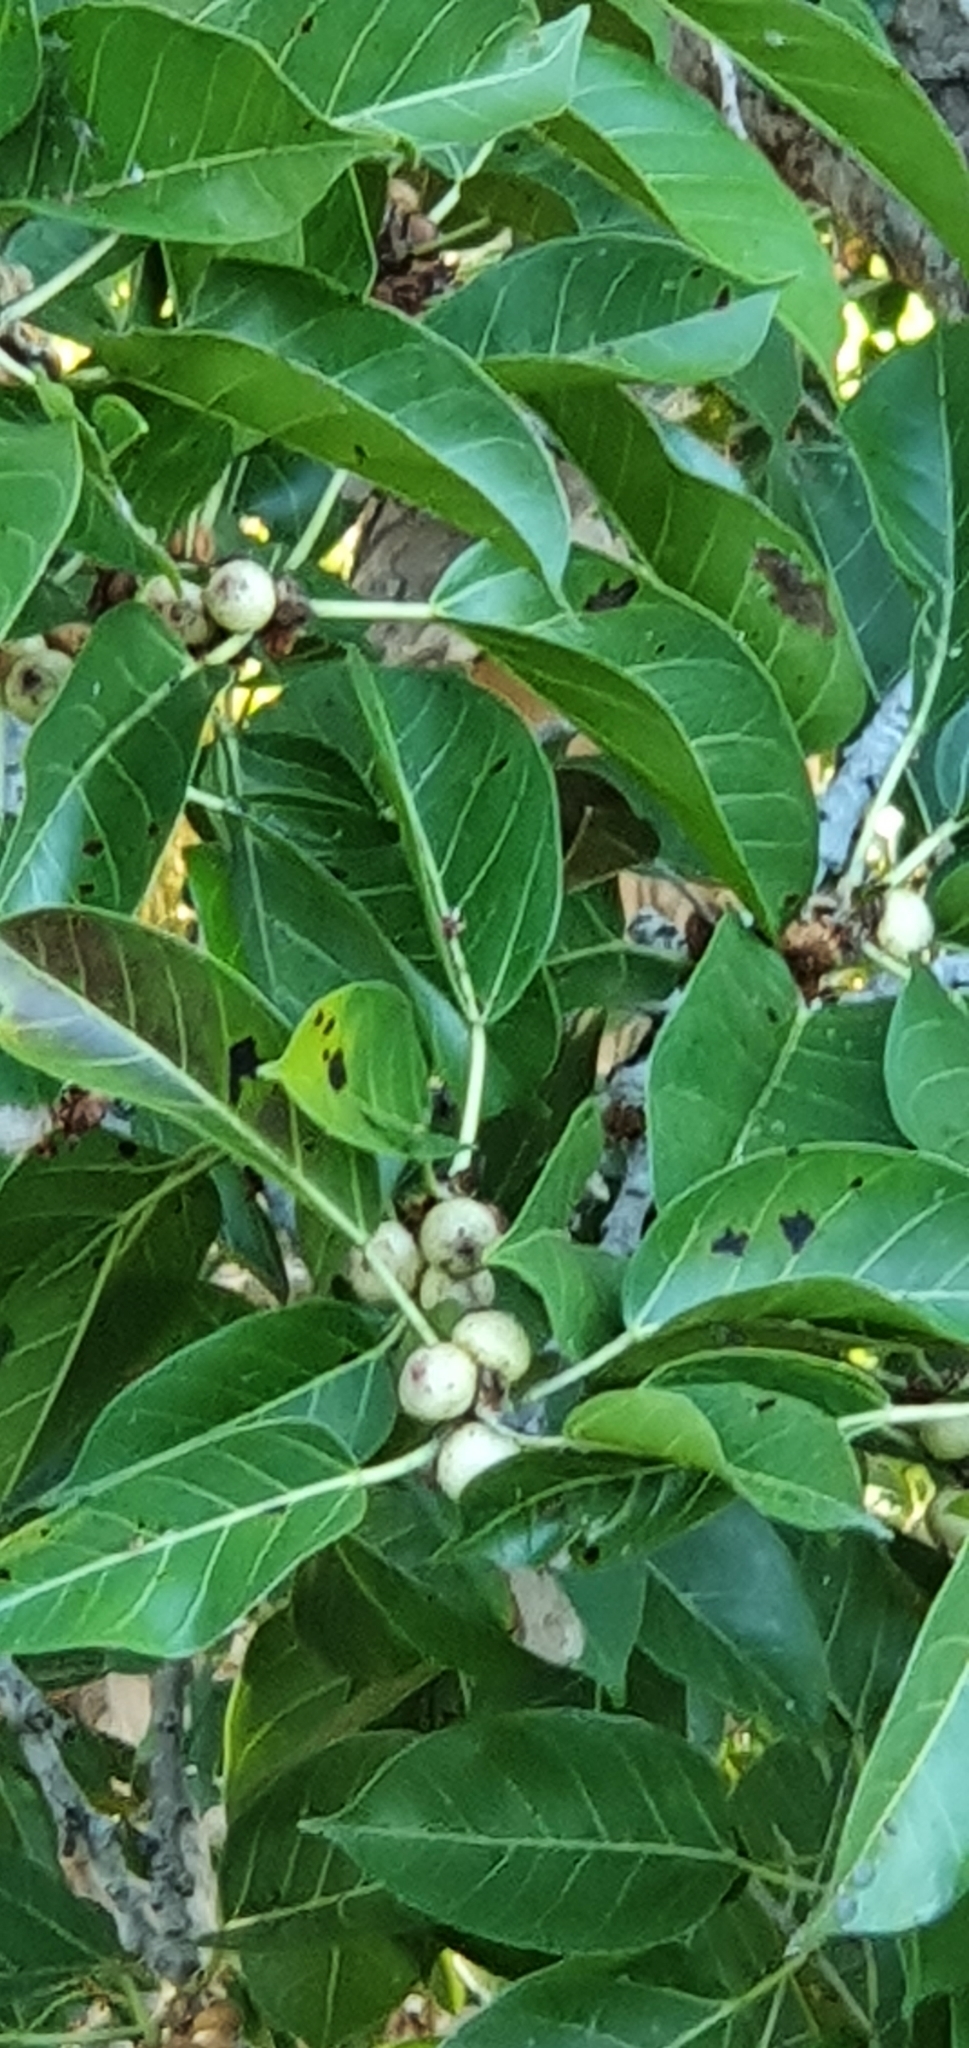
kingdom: Plantae
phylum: Tracheophyta
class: Magnoliopsida
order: Rosales
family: Moraceae
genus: Ficus
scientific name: Ficus virens
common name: Spotted fig
